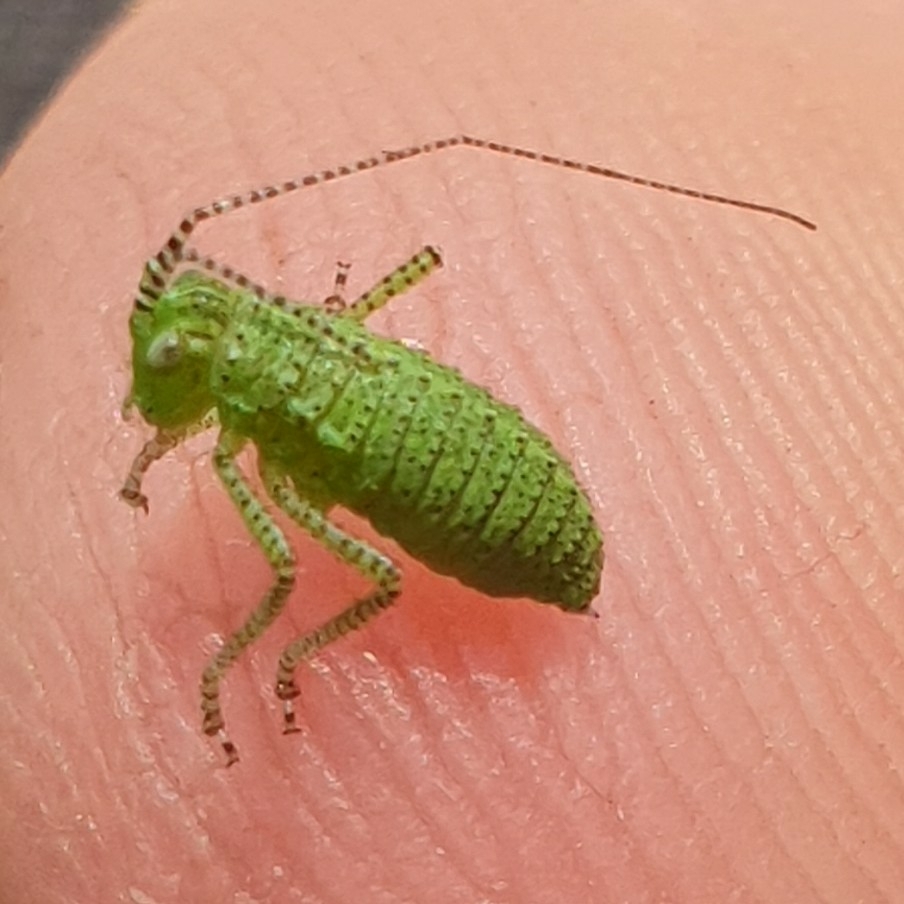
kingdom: Animalia
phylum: Arthropoda
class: Insecta
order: Orthoptera
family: Tettigoniidae
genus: Leptophyes
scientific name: Leptophyes punctatissima
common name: Speckled bush-cricket
